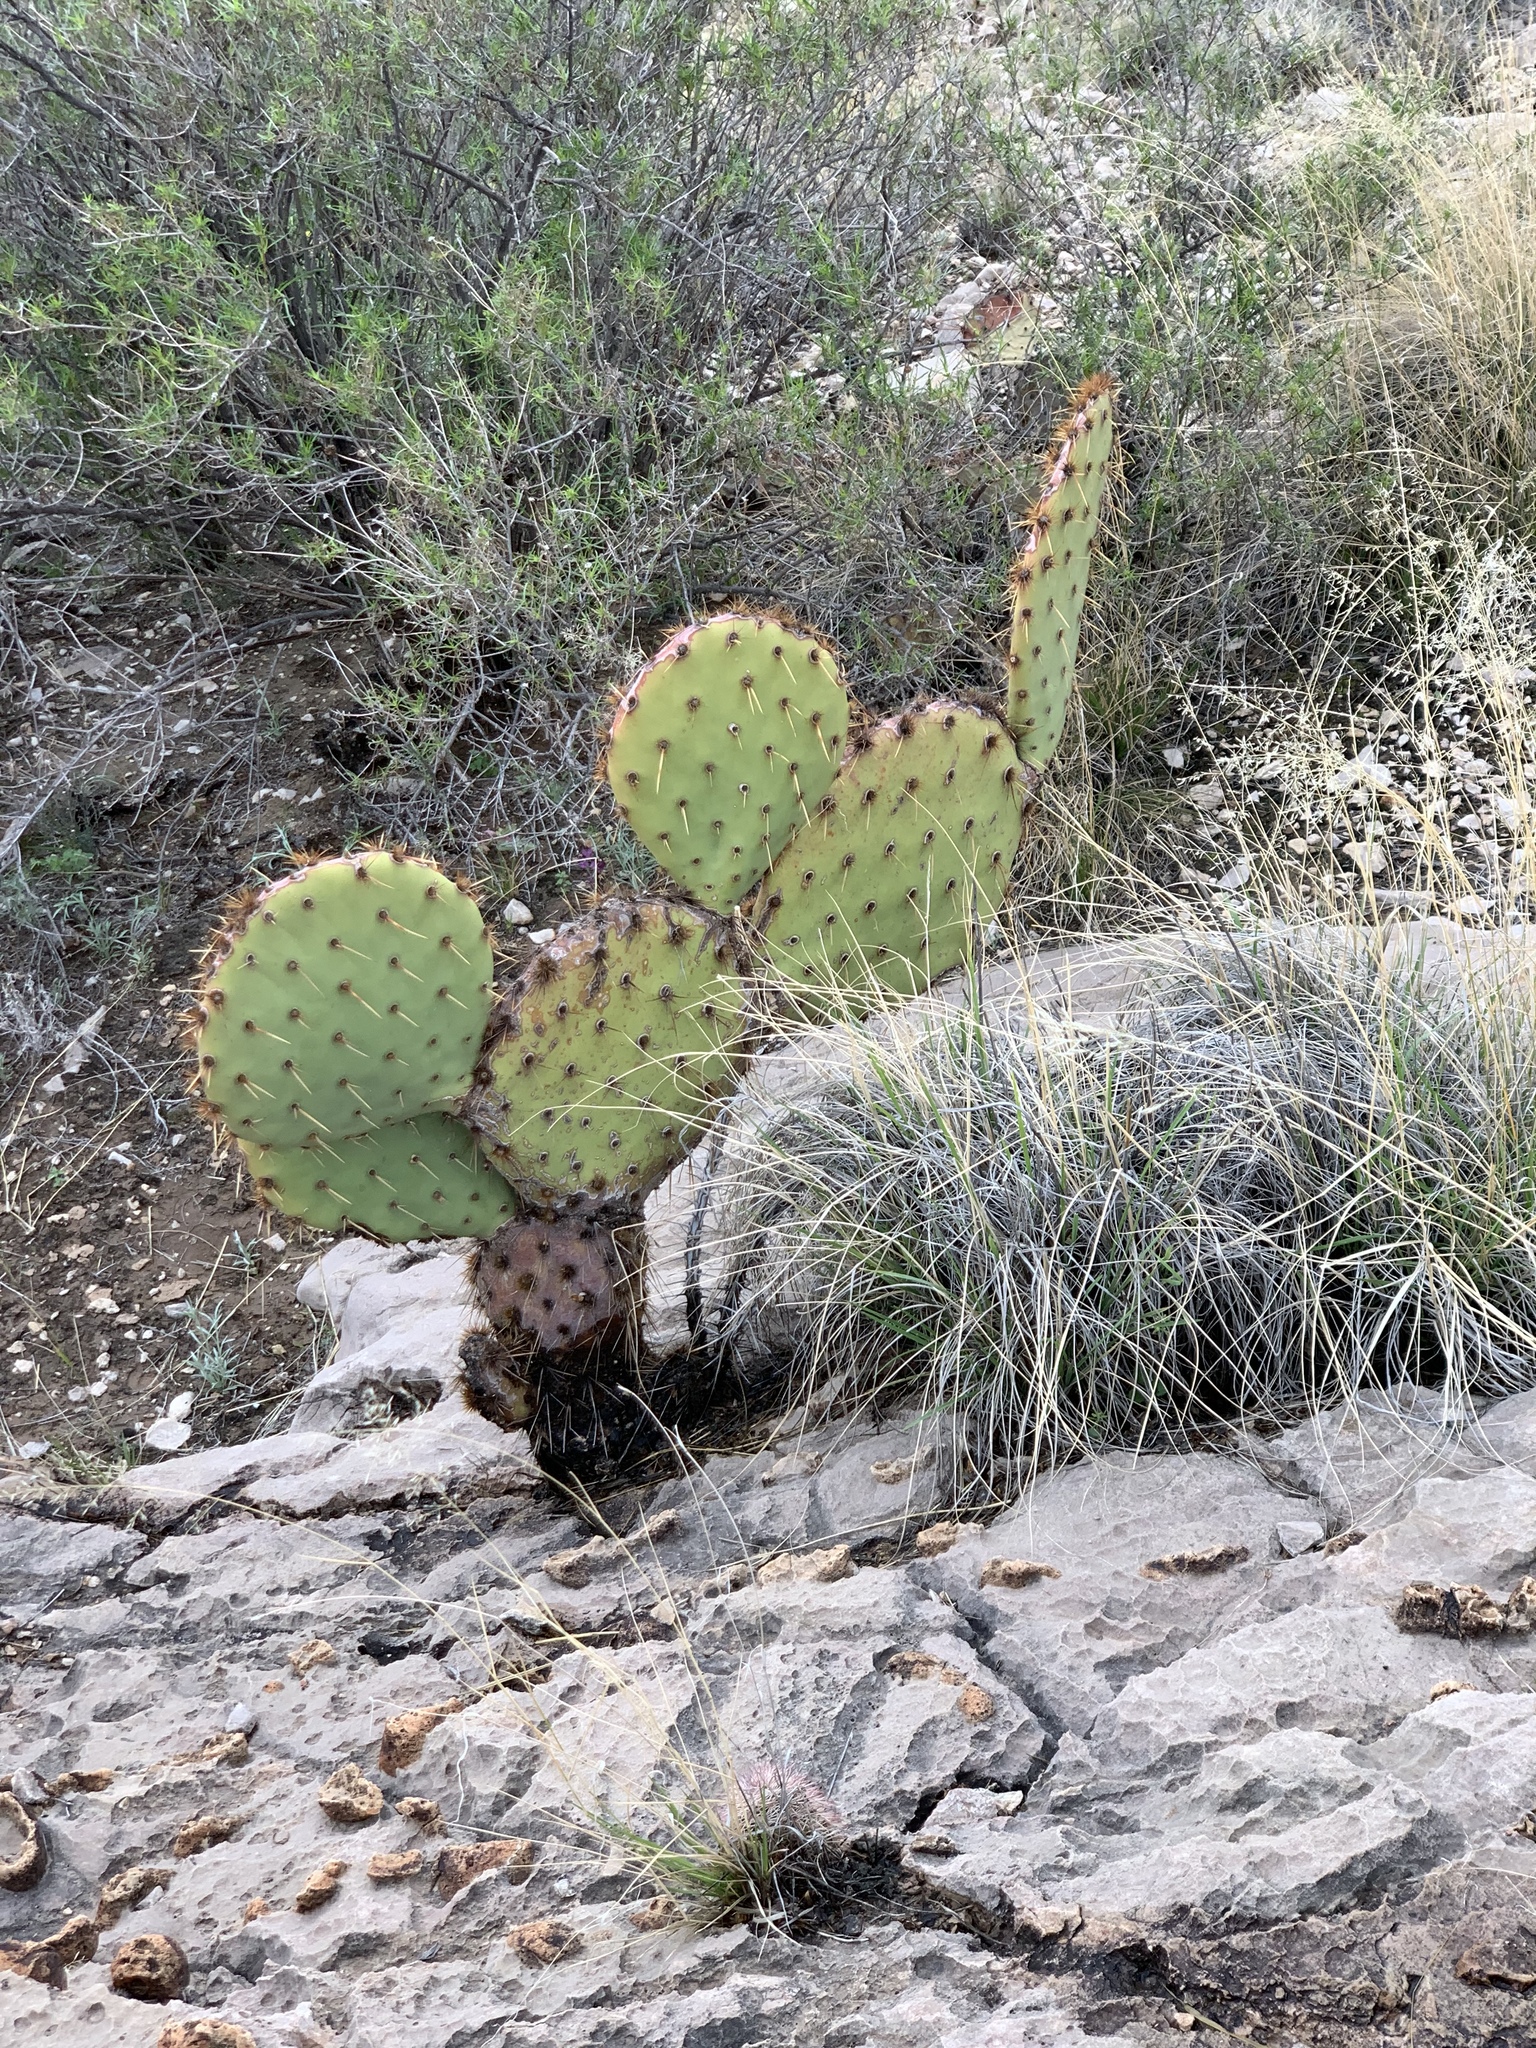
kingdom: Plantae
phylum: Tracheophyta
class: Magnoliopsida
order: Caryophyllales
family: Cactaceae
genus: Opuntia
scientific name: Opuntia engelmannii
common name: Cactus-apple
